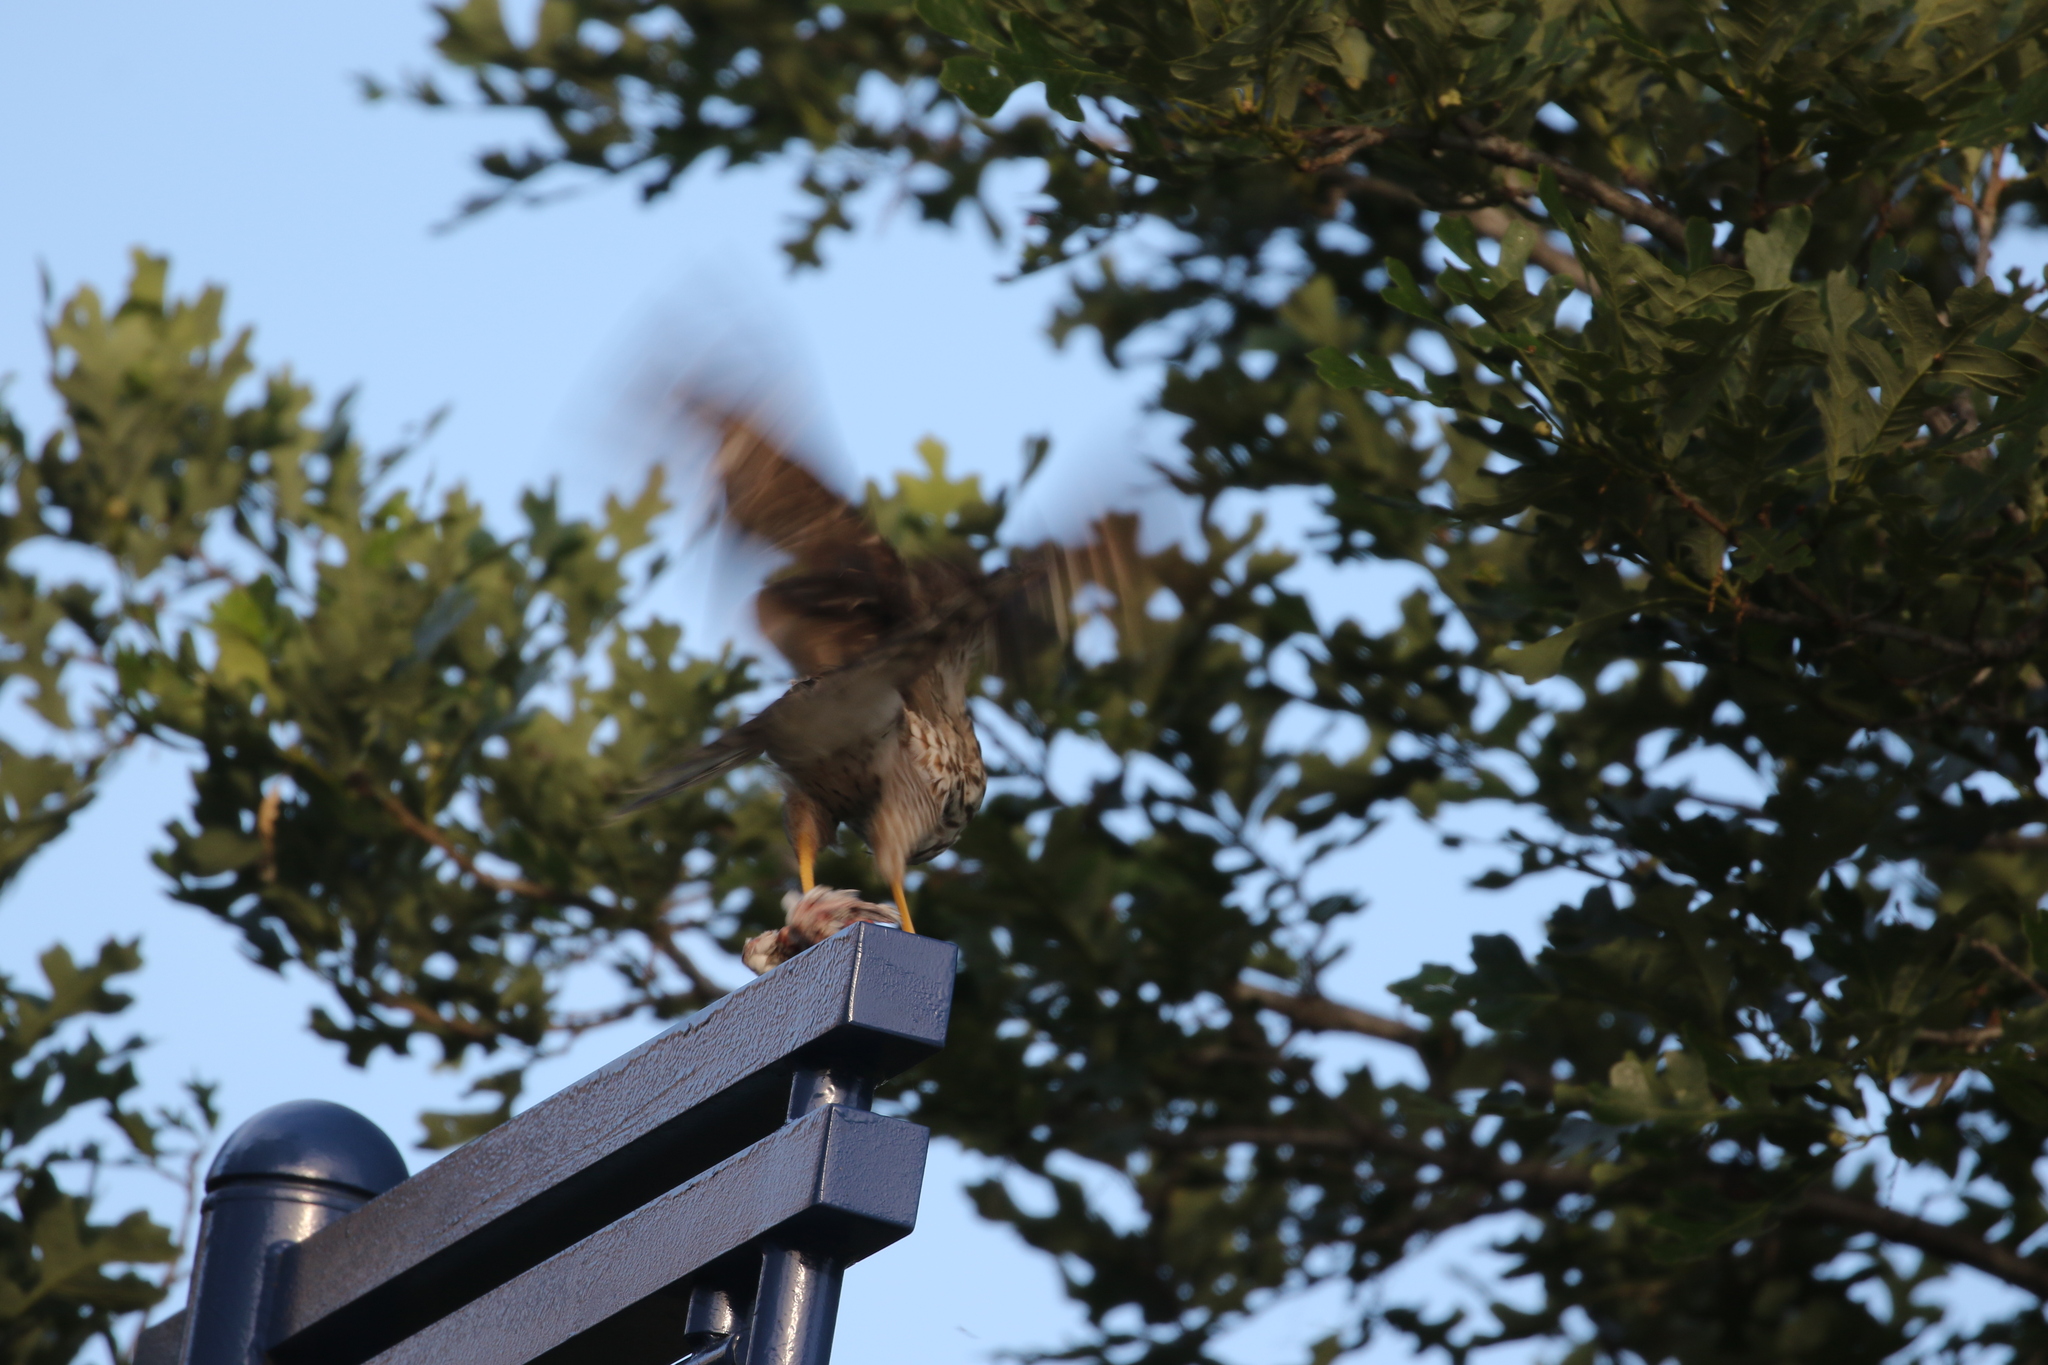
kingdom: Animalia
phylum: Chordata
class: Aves
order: Accipitriformes
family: Accipitridae
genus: Accipiter
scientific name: Accipiter cooperii
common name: Cooper's hawk
